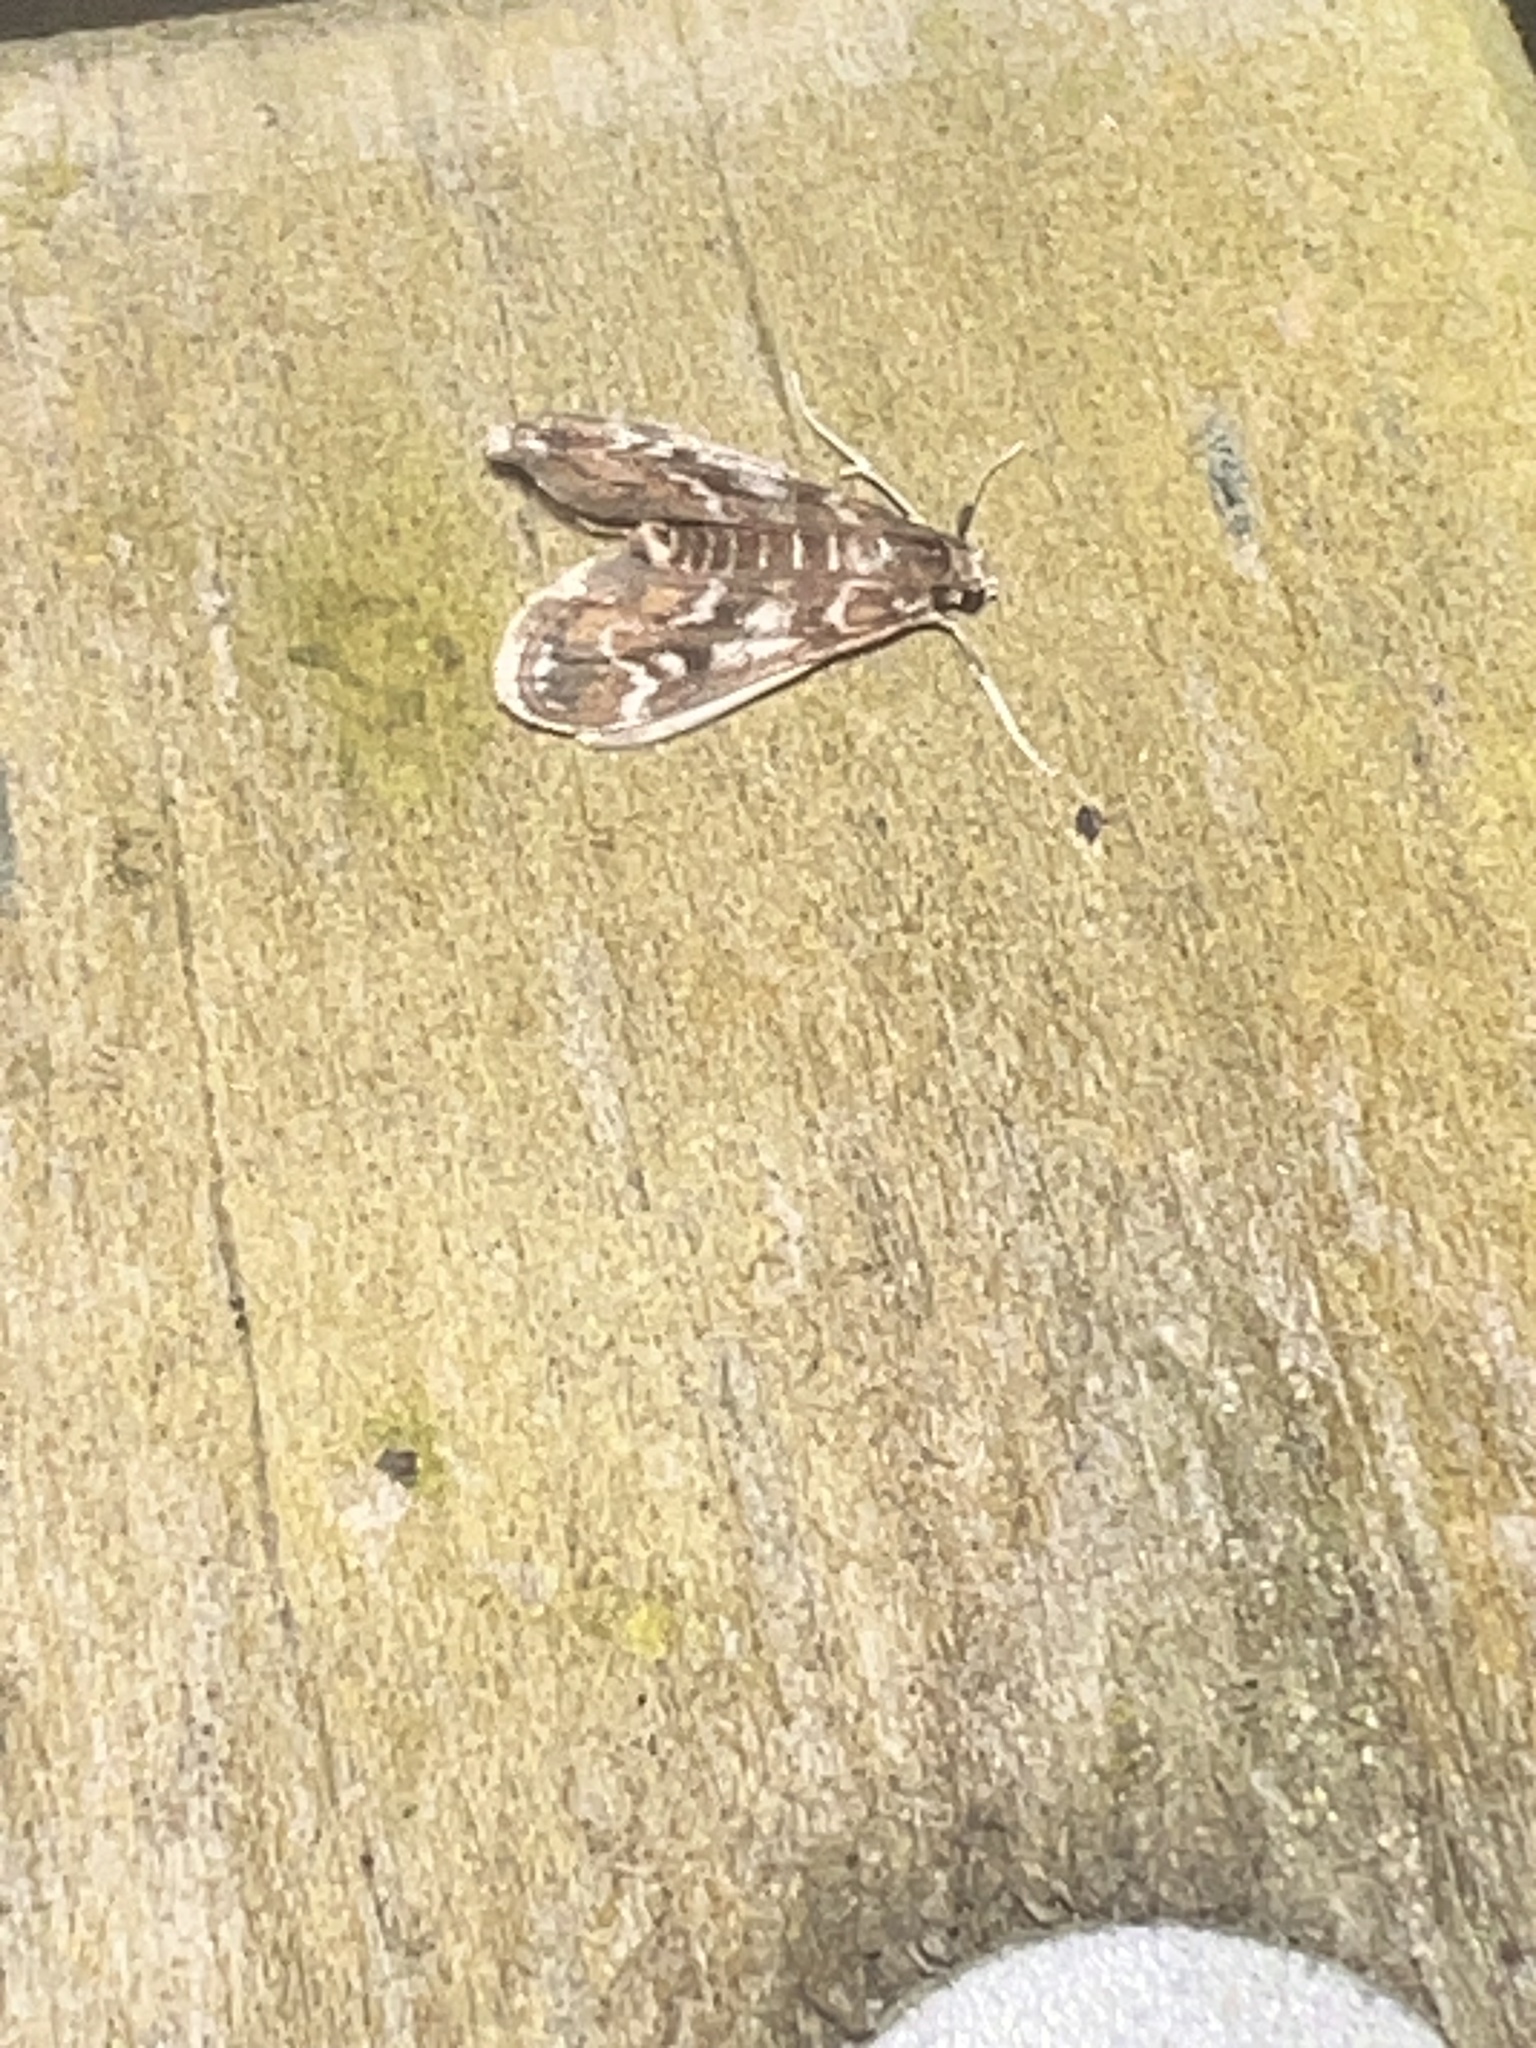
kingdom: Animalia
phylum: Arthropoda
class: Insecta
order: Lepidoptera
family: Crambidae
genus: Hygraula
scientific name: Hygraula nitens
